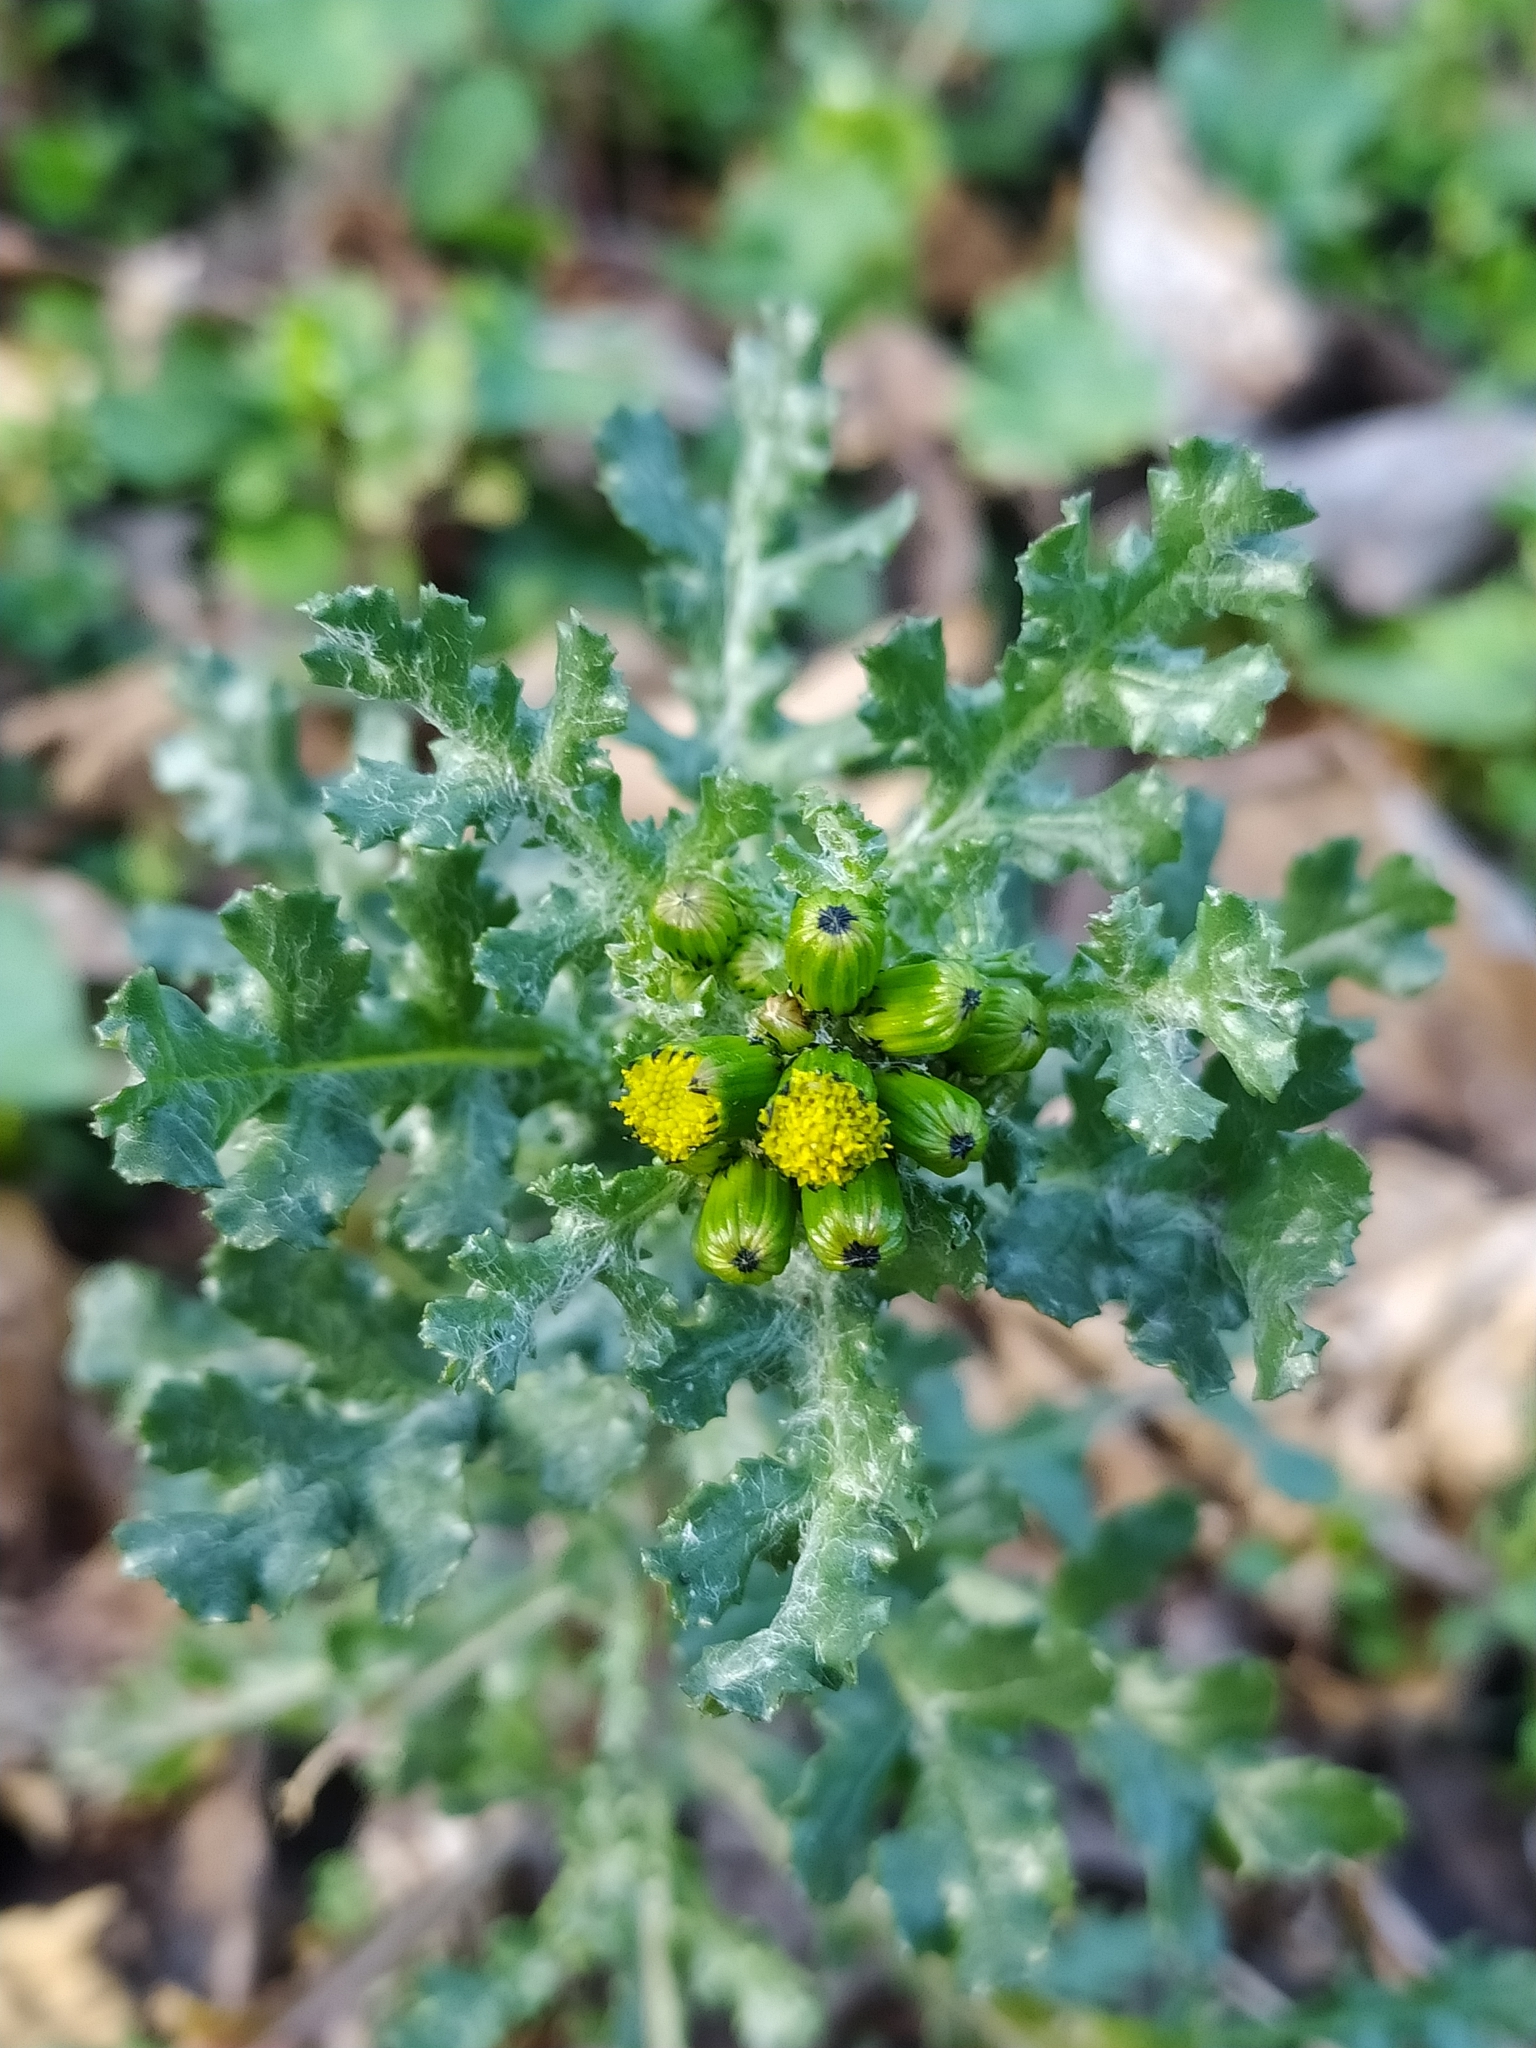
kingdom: Plantae
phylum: Tracheophyta
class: Magnoliopsida
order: Asterales
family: Asteraceae
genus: Senecio
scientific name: Senecio vulgaris
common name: Old-man-in-the-spring
